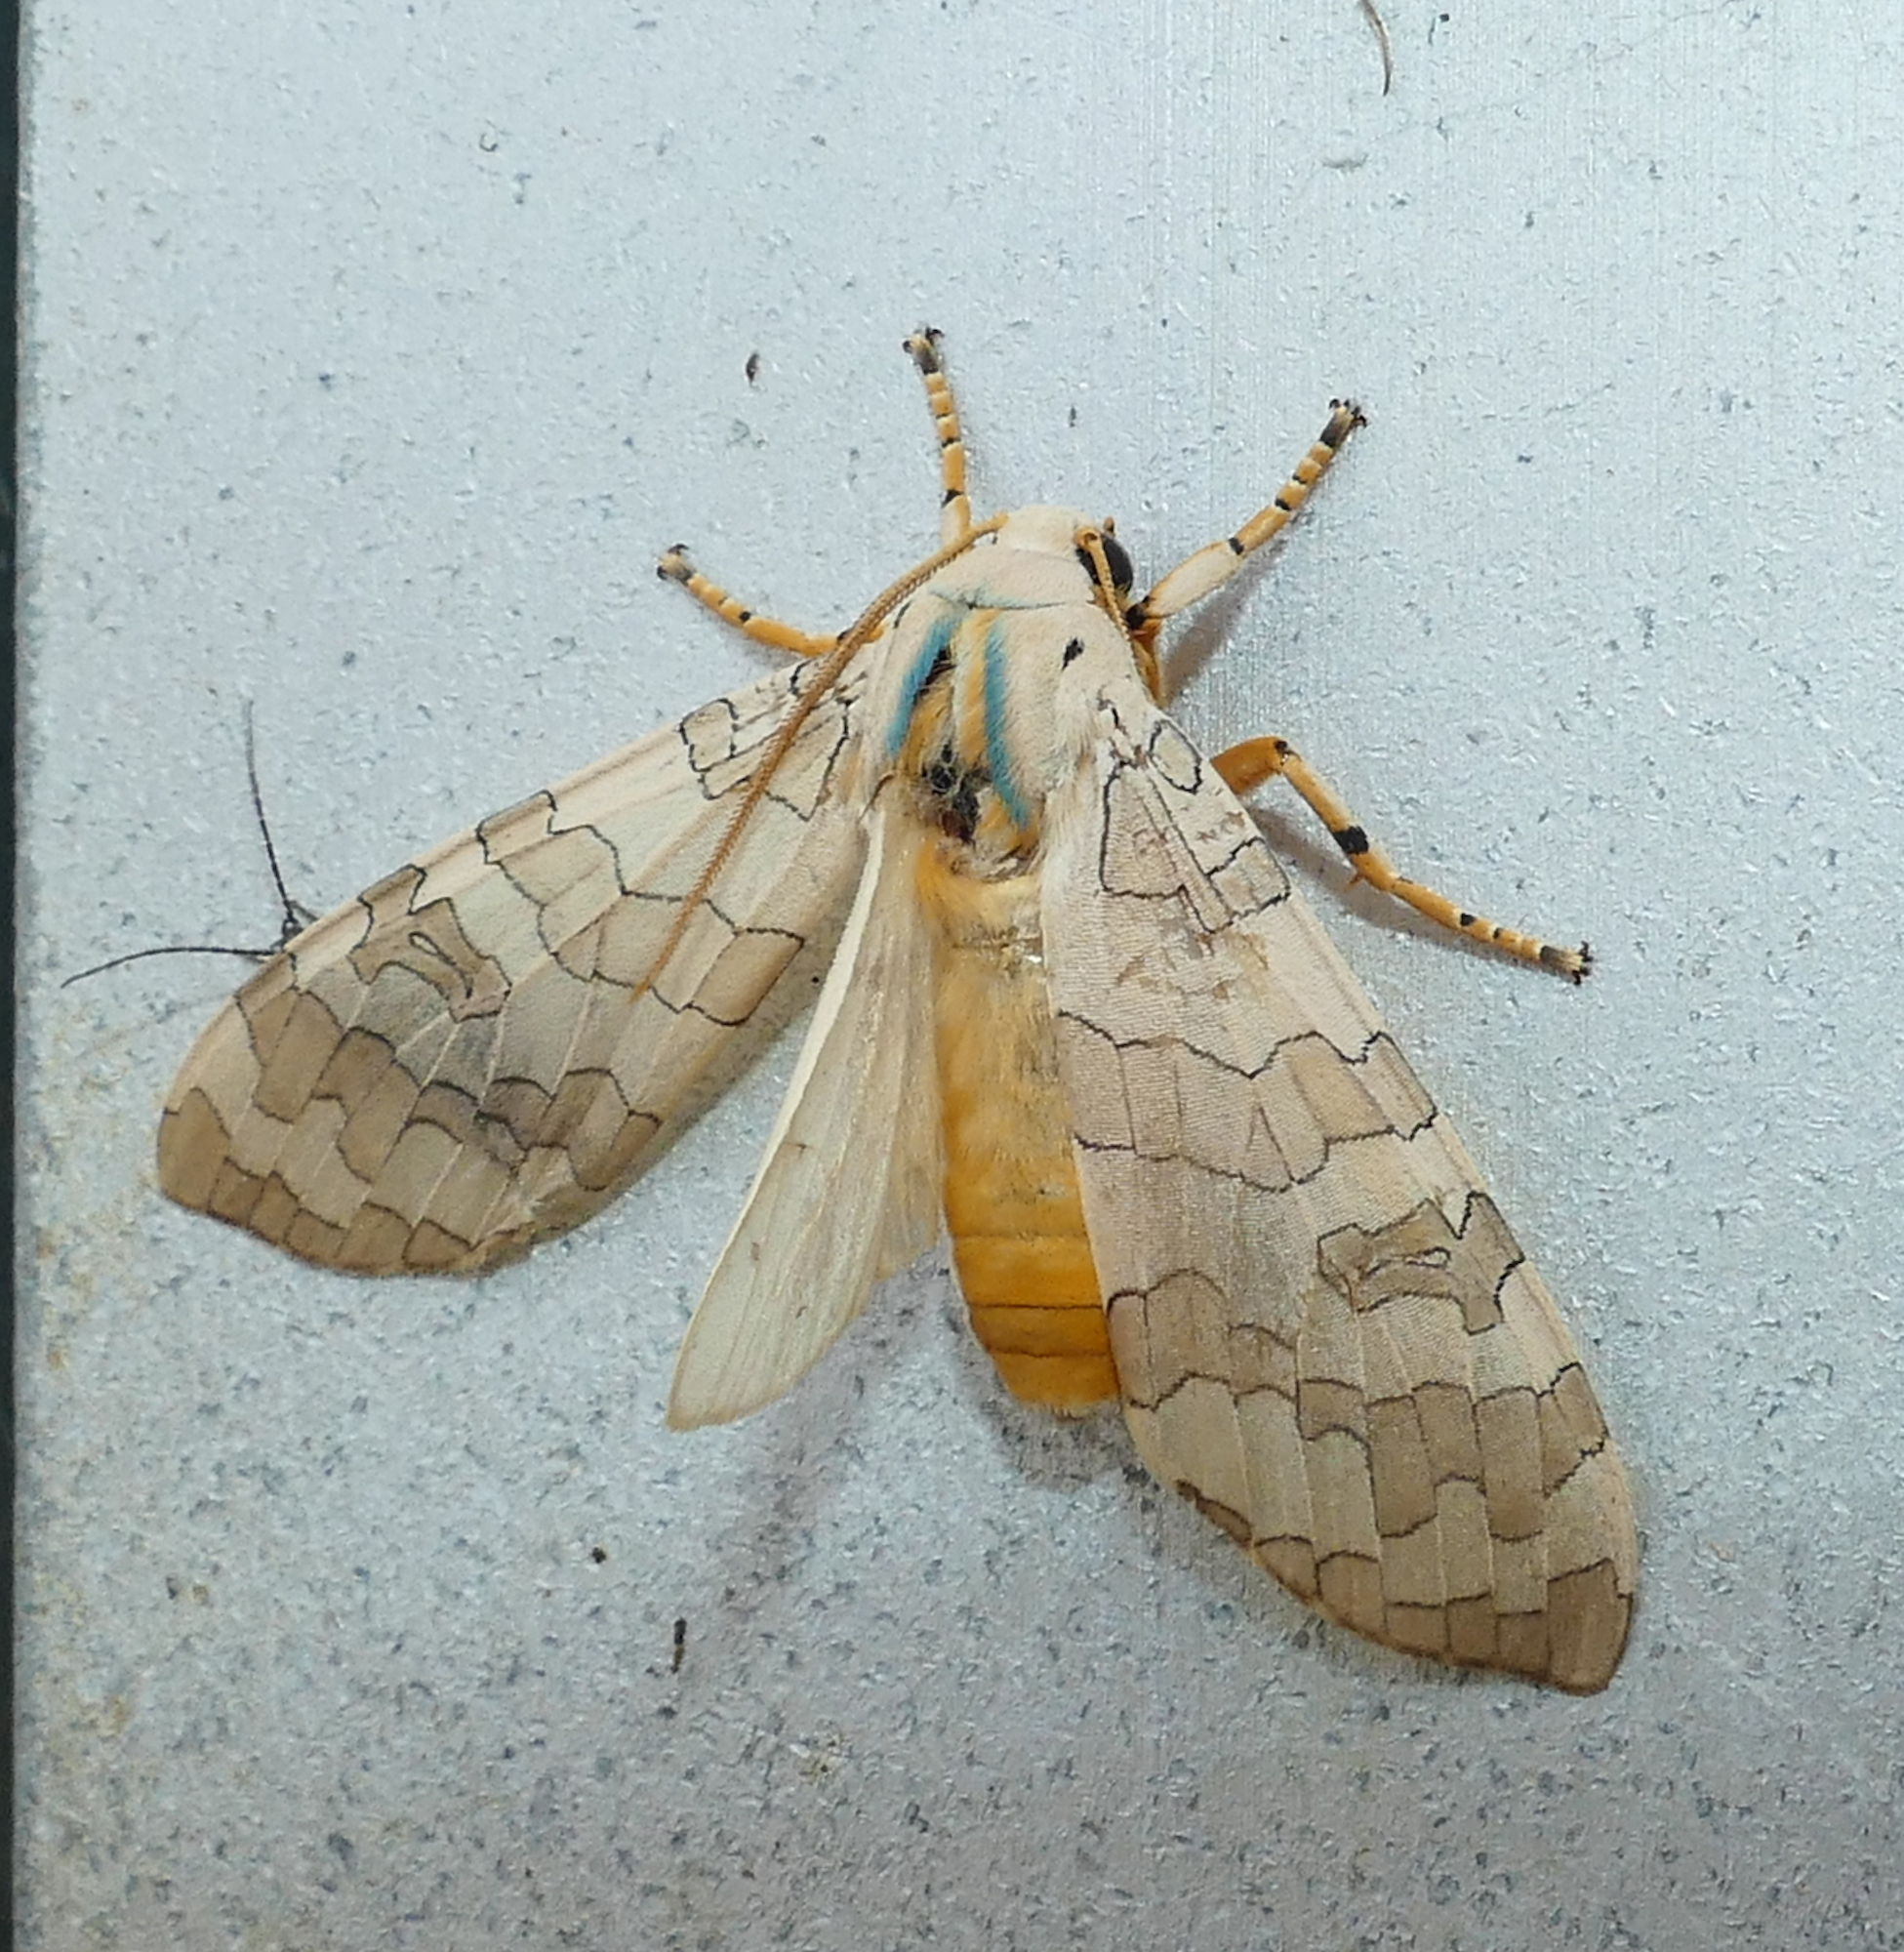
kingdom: Animalia
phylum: Arthropoda
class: Insecta
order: Lepidoptera
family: Erebidae
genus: Halysidota
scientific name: Halysidota
